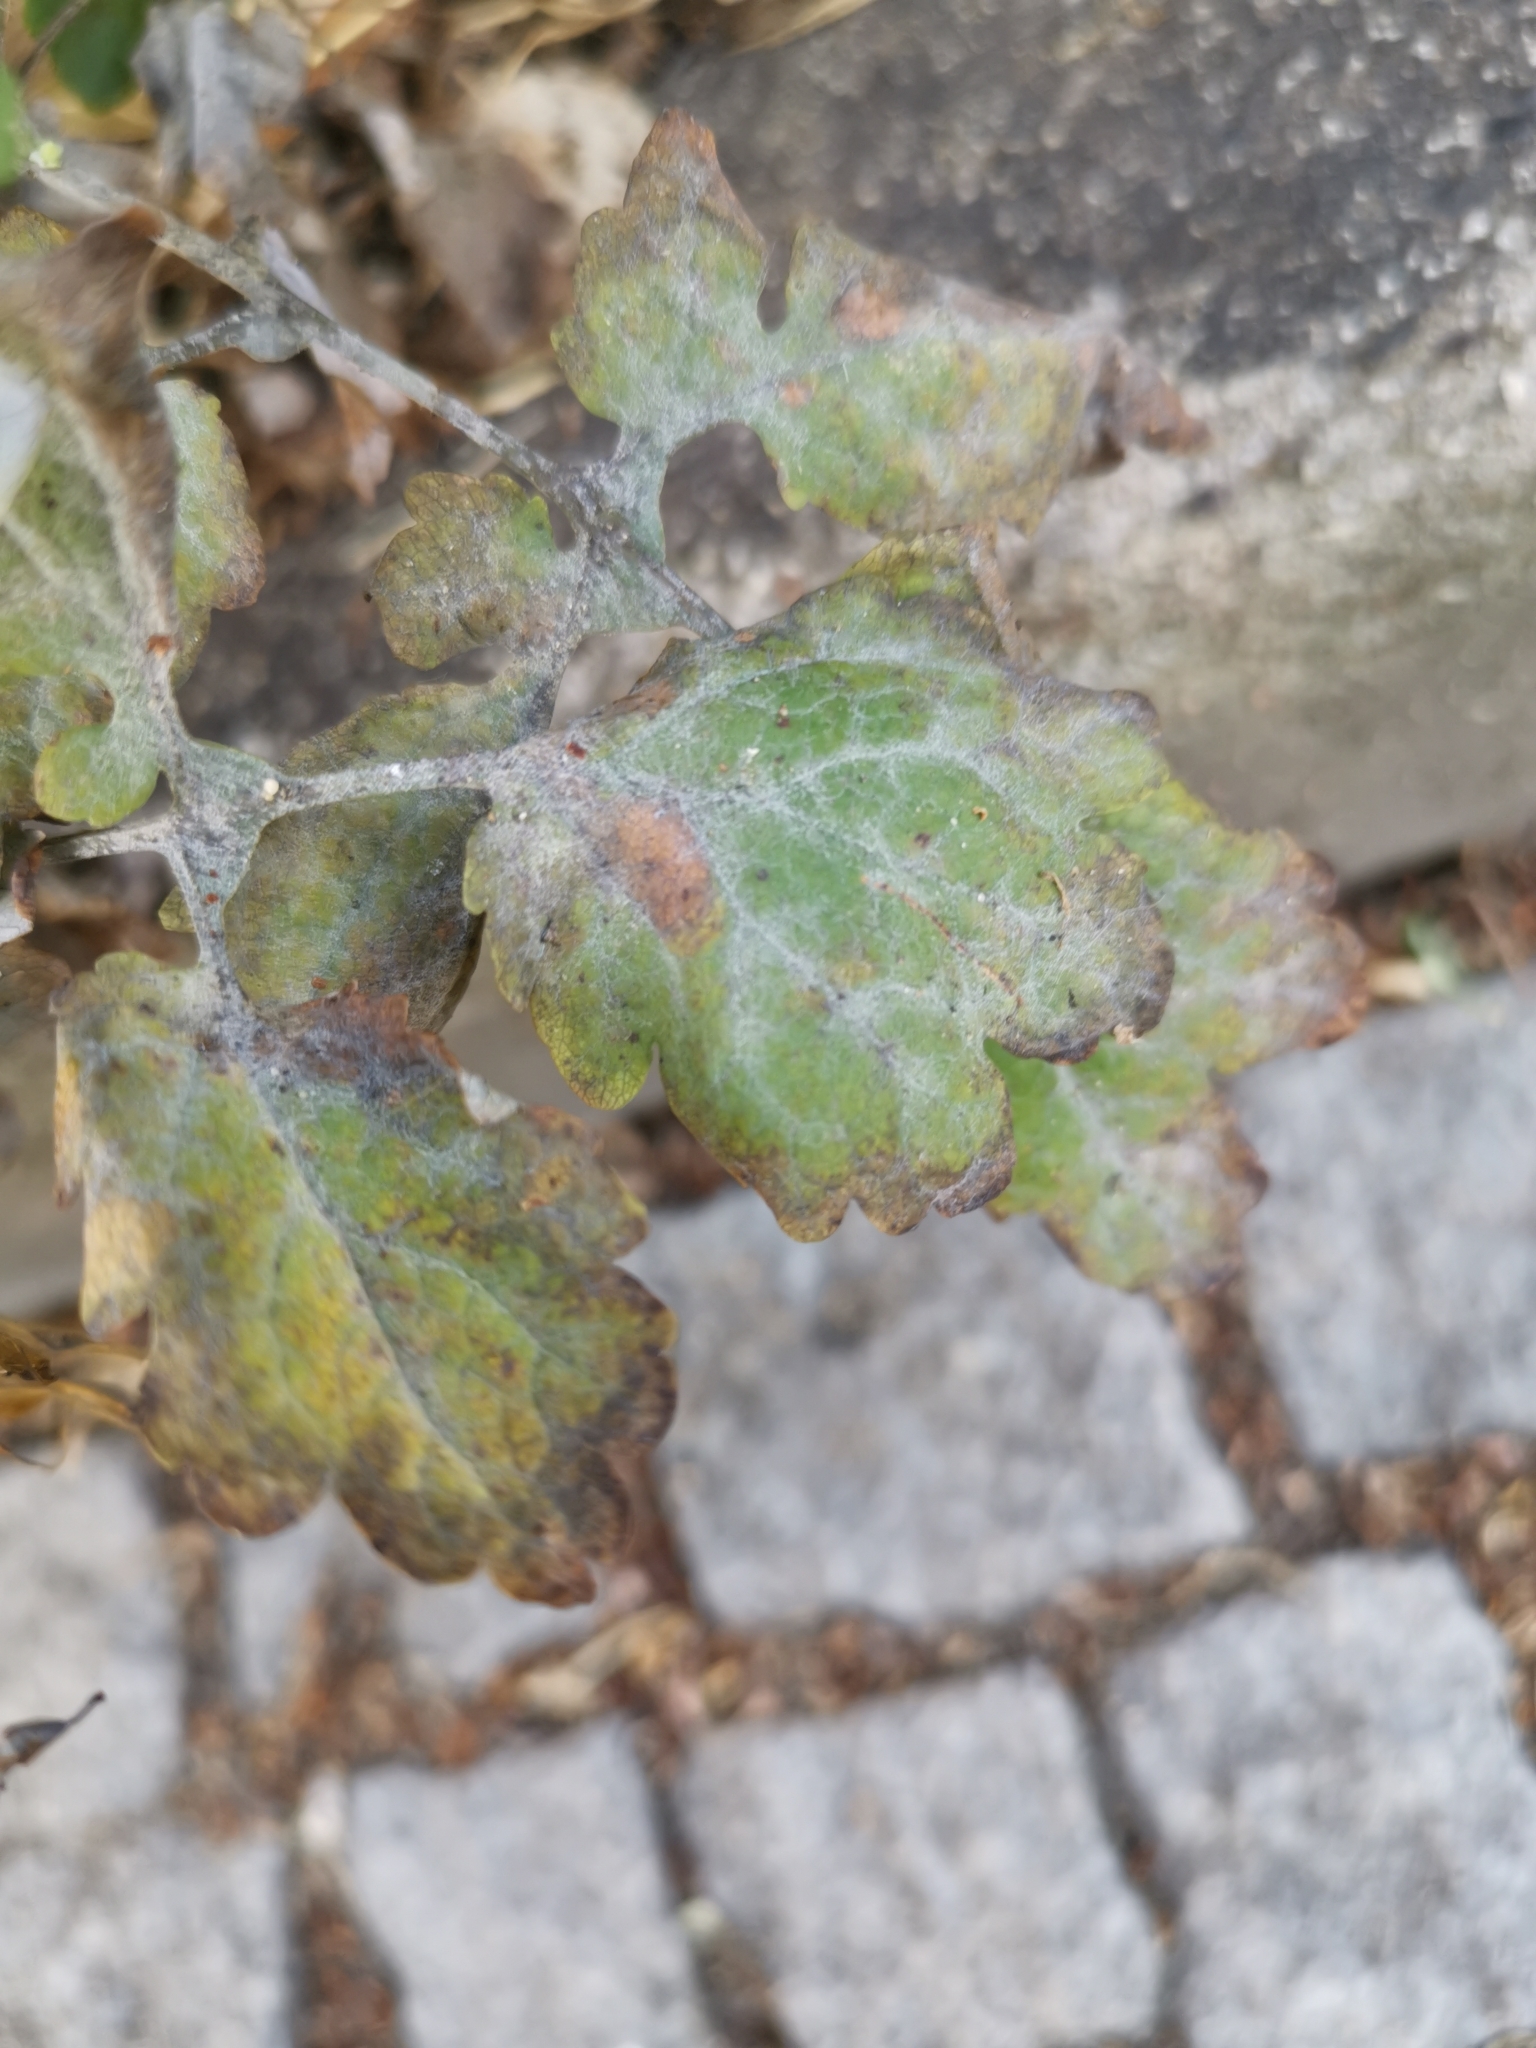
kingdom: Fungi
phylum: Ascomycota
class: Leotiomycetes
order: Helotiales
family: Erysiphaceae
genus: Erysiphe
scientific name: Erysiphe macleayae
